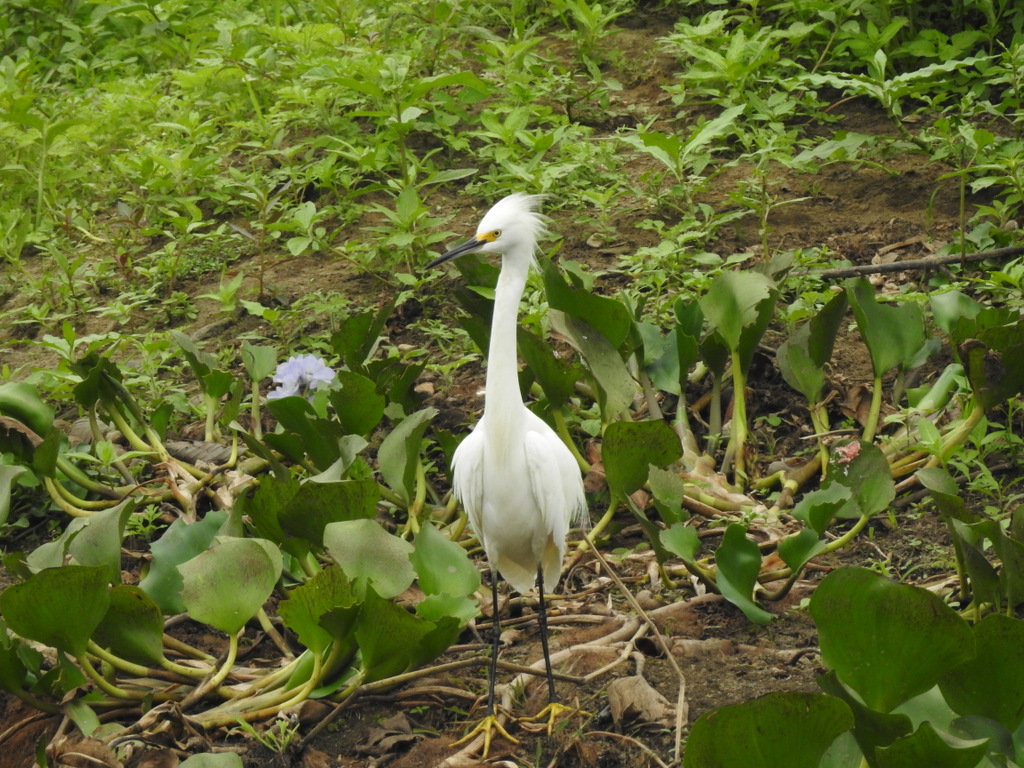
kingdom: Animalia
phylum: Chordata
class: Aves
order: Pelecaniformes
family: Ardeidae
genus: Egretta
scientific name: Egretta thula
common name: Snowy egret
